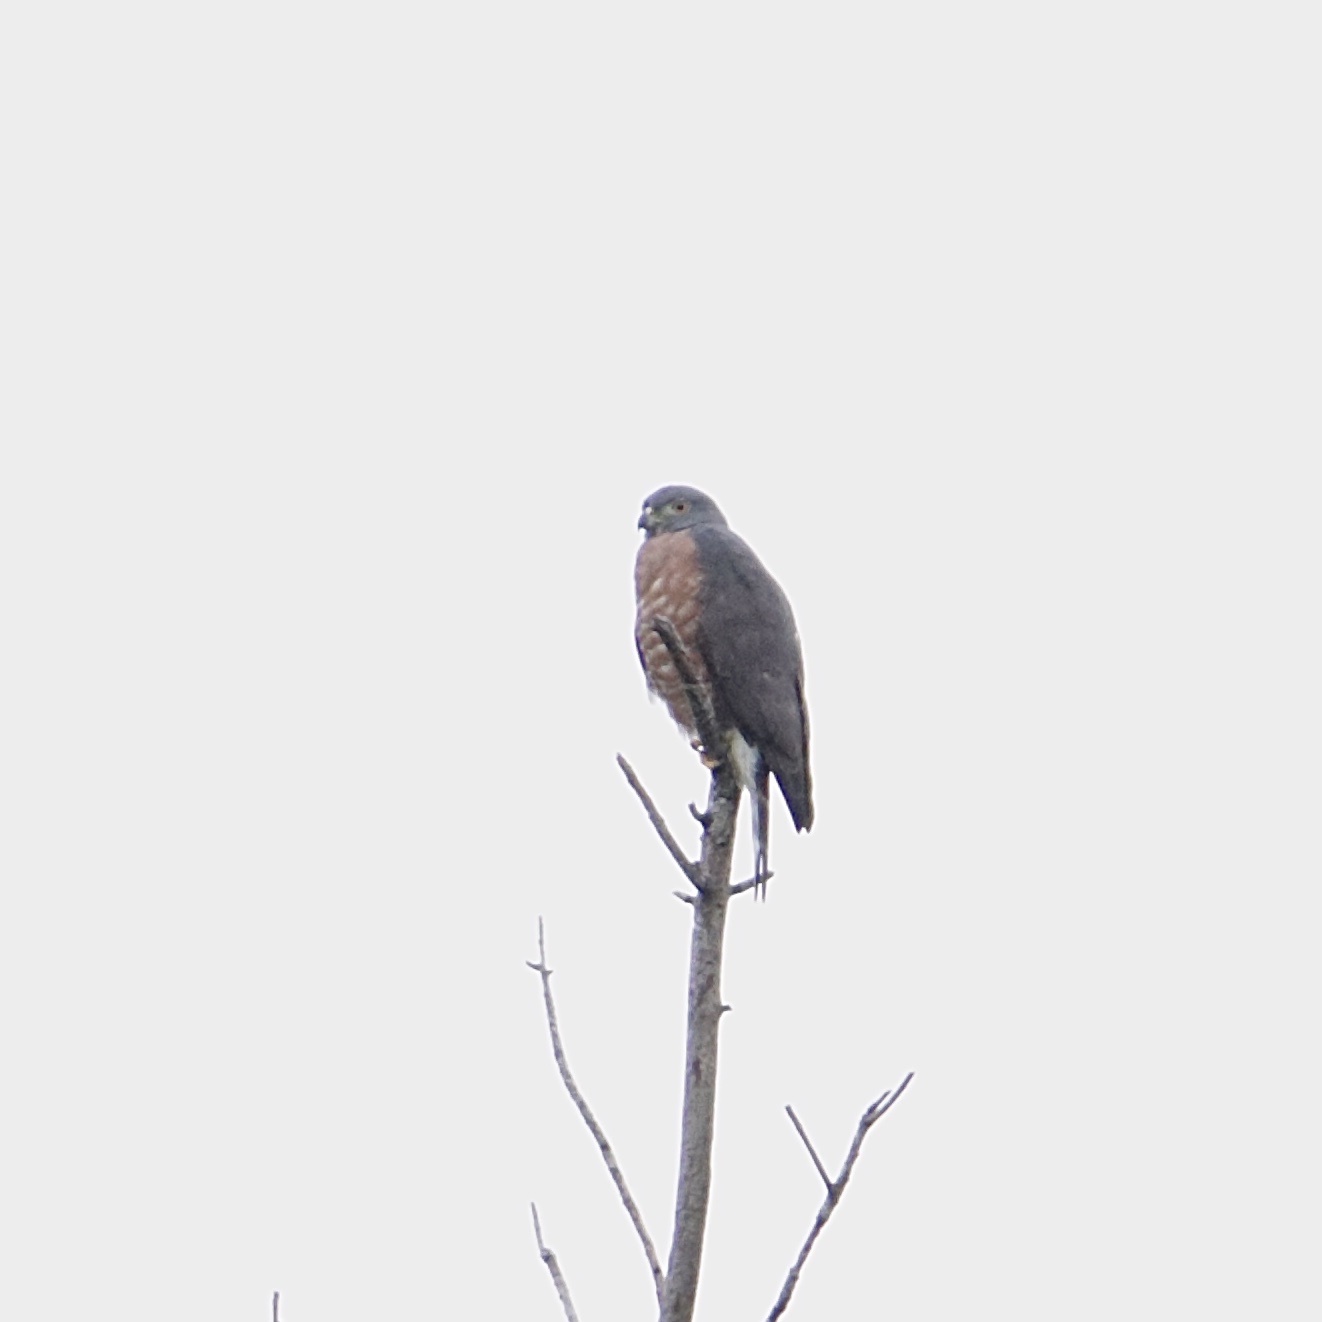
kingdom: Animalia
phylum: Chordata
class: Aves
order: Accipitriformes
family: Accipitridae
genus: Harpagus
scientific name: Harpagus bidentatus
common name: Double-toothed kite
